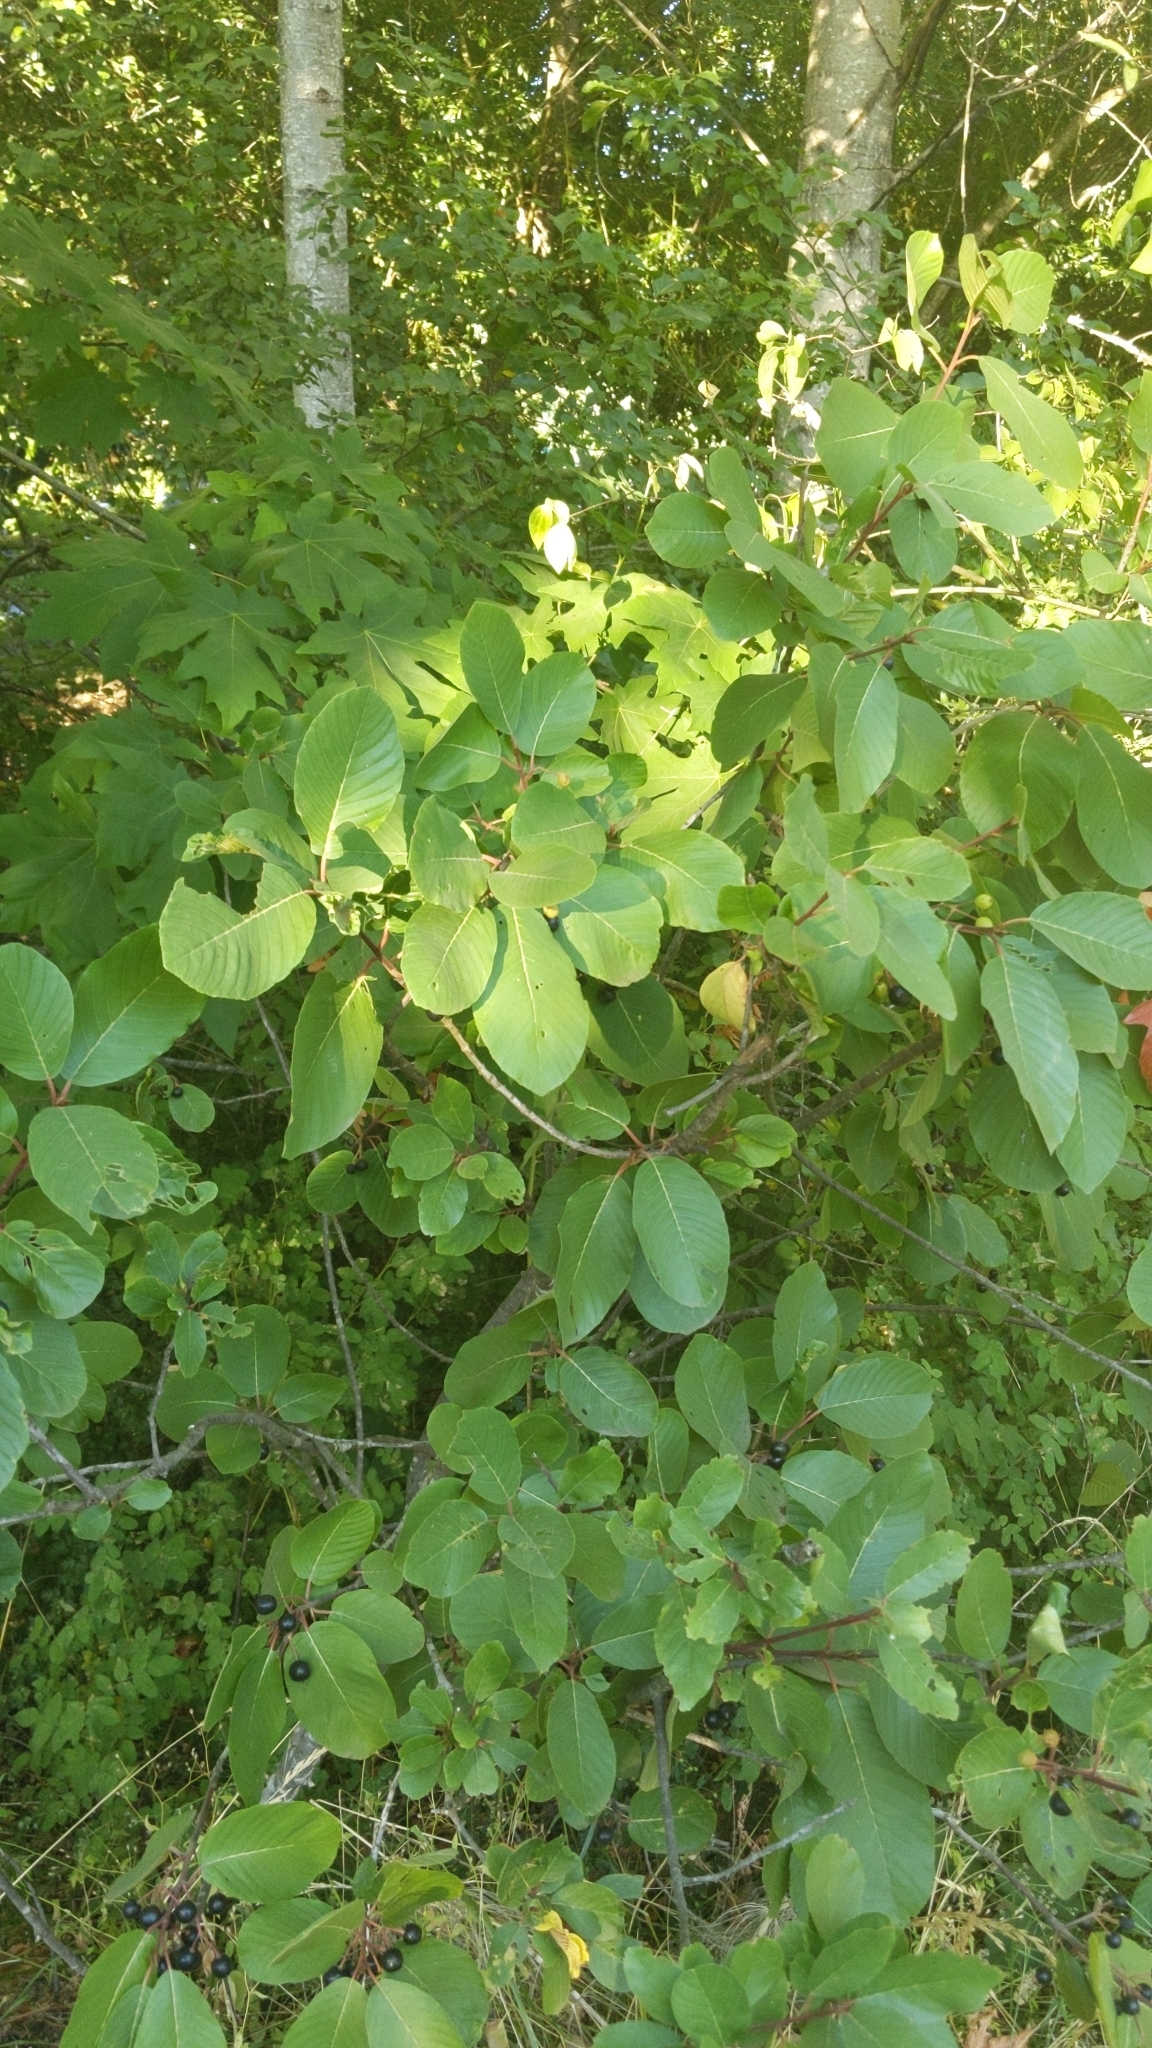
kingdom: Plantae
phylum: Tracheophyta
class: Magnoliopsida
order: Rosales
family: Rhamnaceae
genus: Frangula
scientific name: Frangula purshiana
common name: Cascara buckthorn
